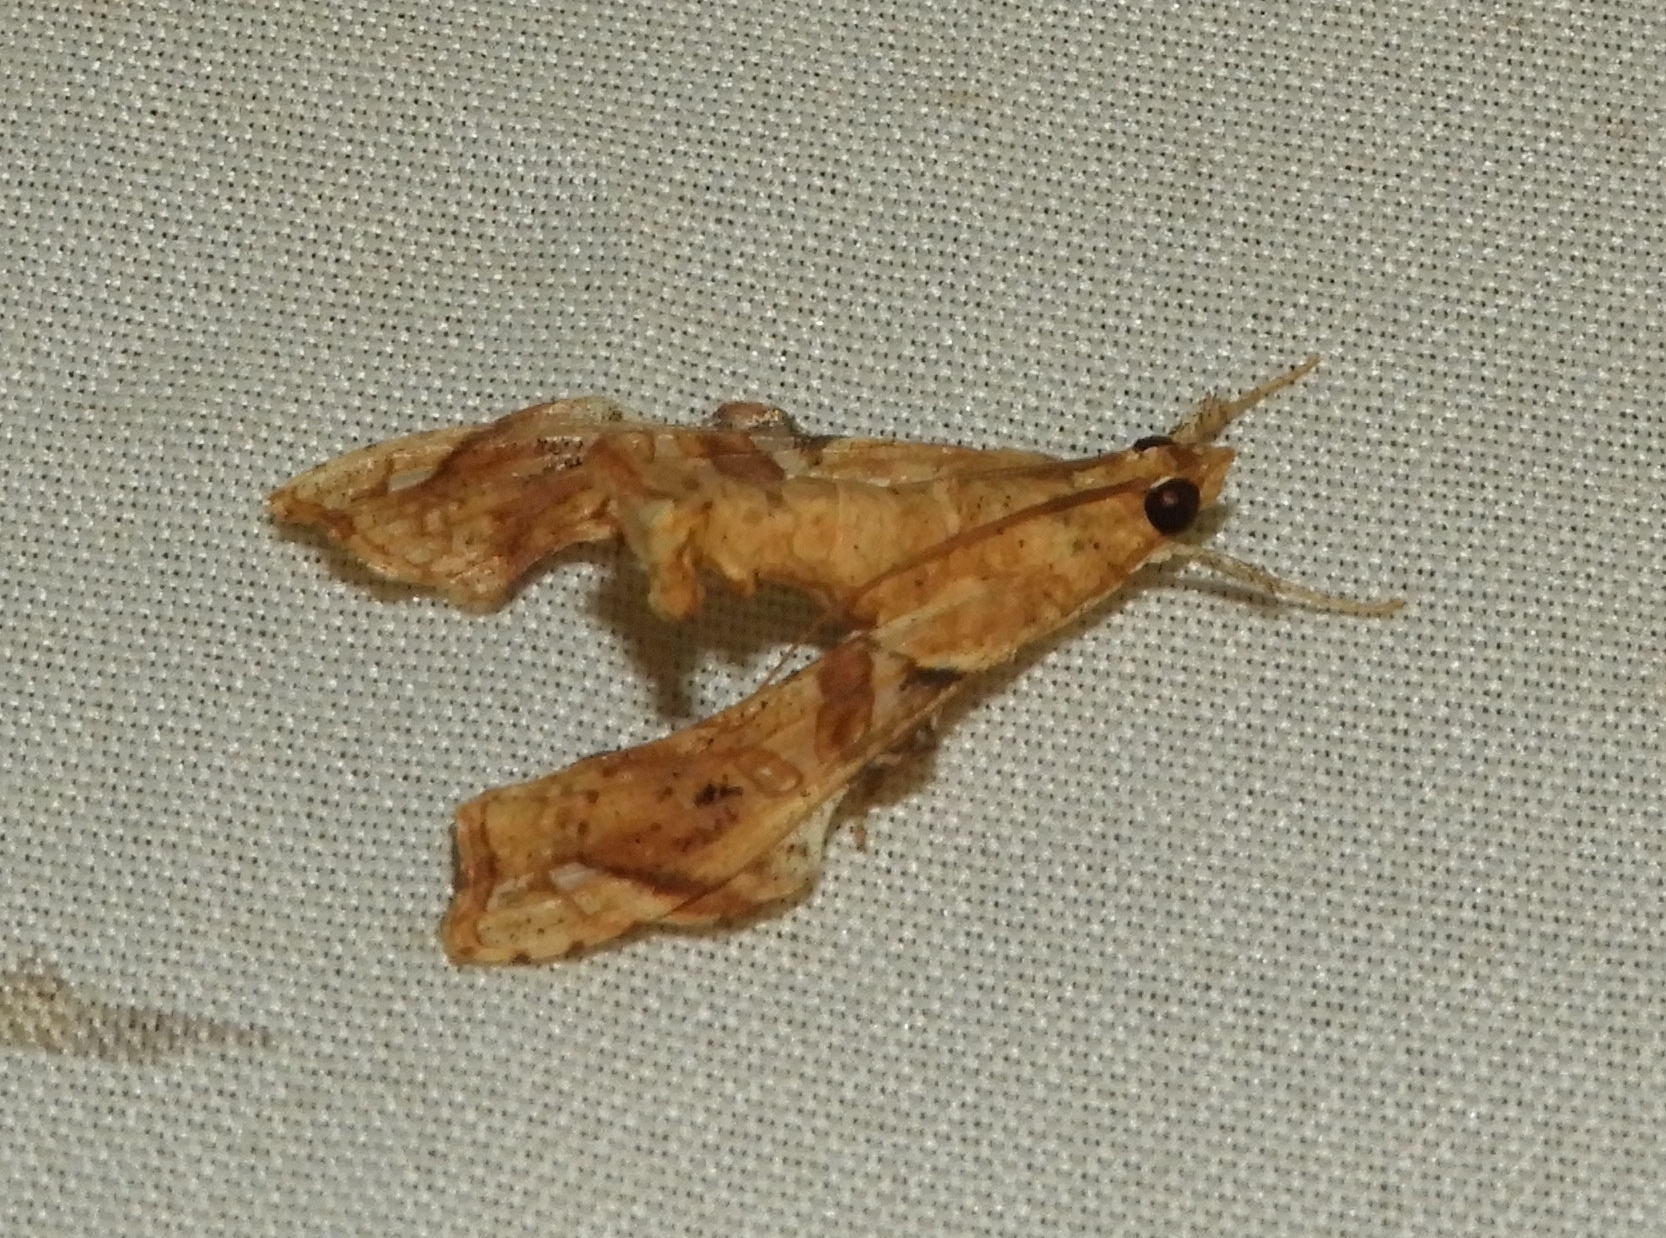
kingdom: Animalia
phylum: Arthropoda
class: Insecta
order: Lepidoptera
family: Crambidae
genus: Terastia
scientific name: Terastia meticulosalis
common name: Moth
